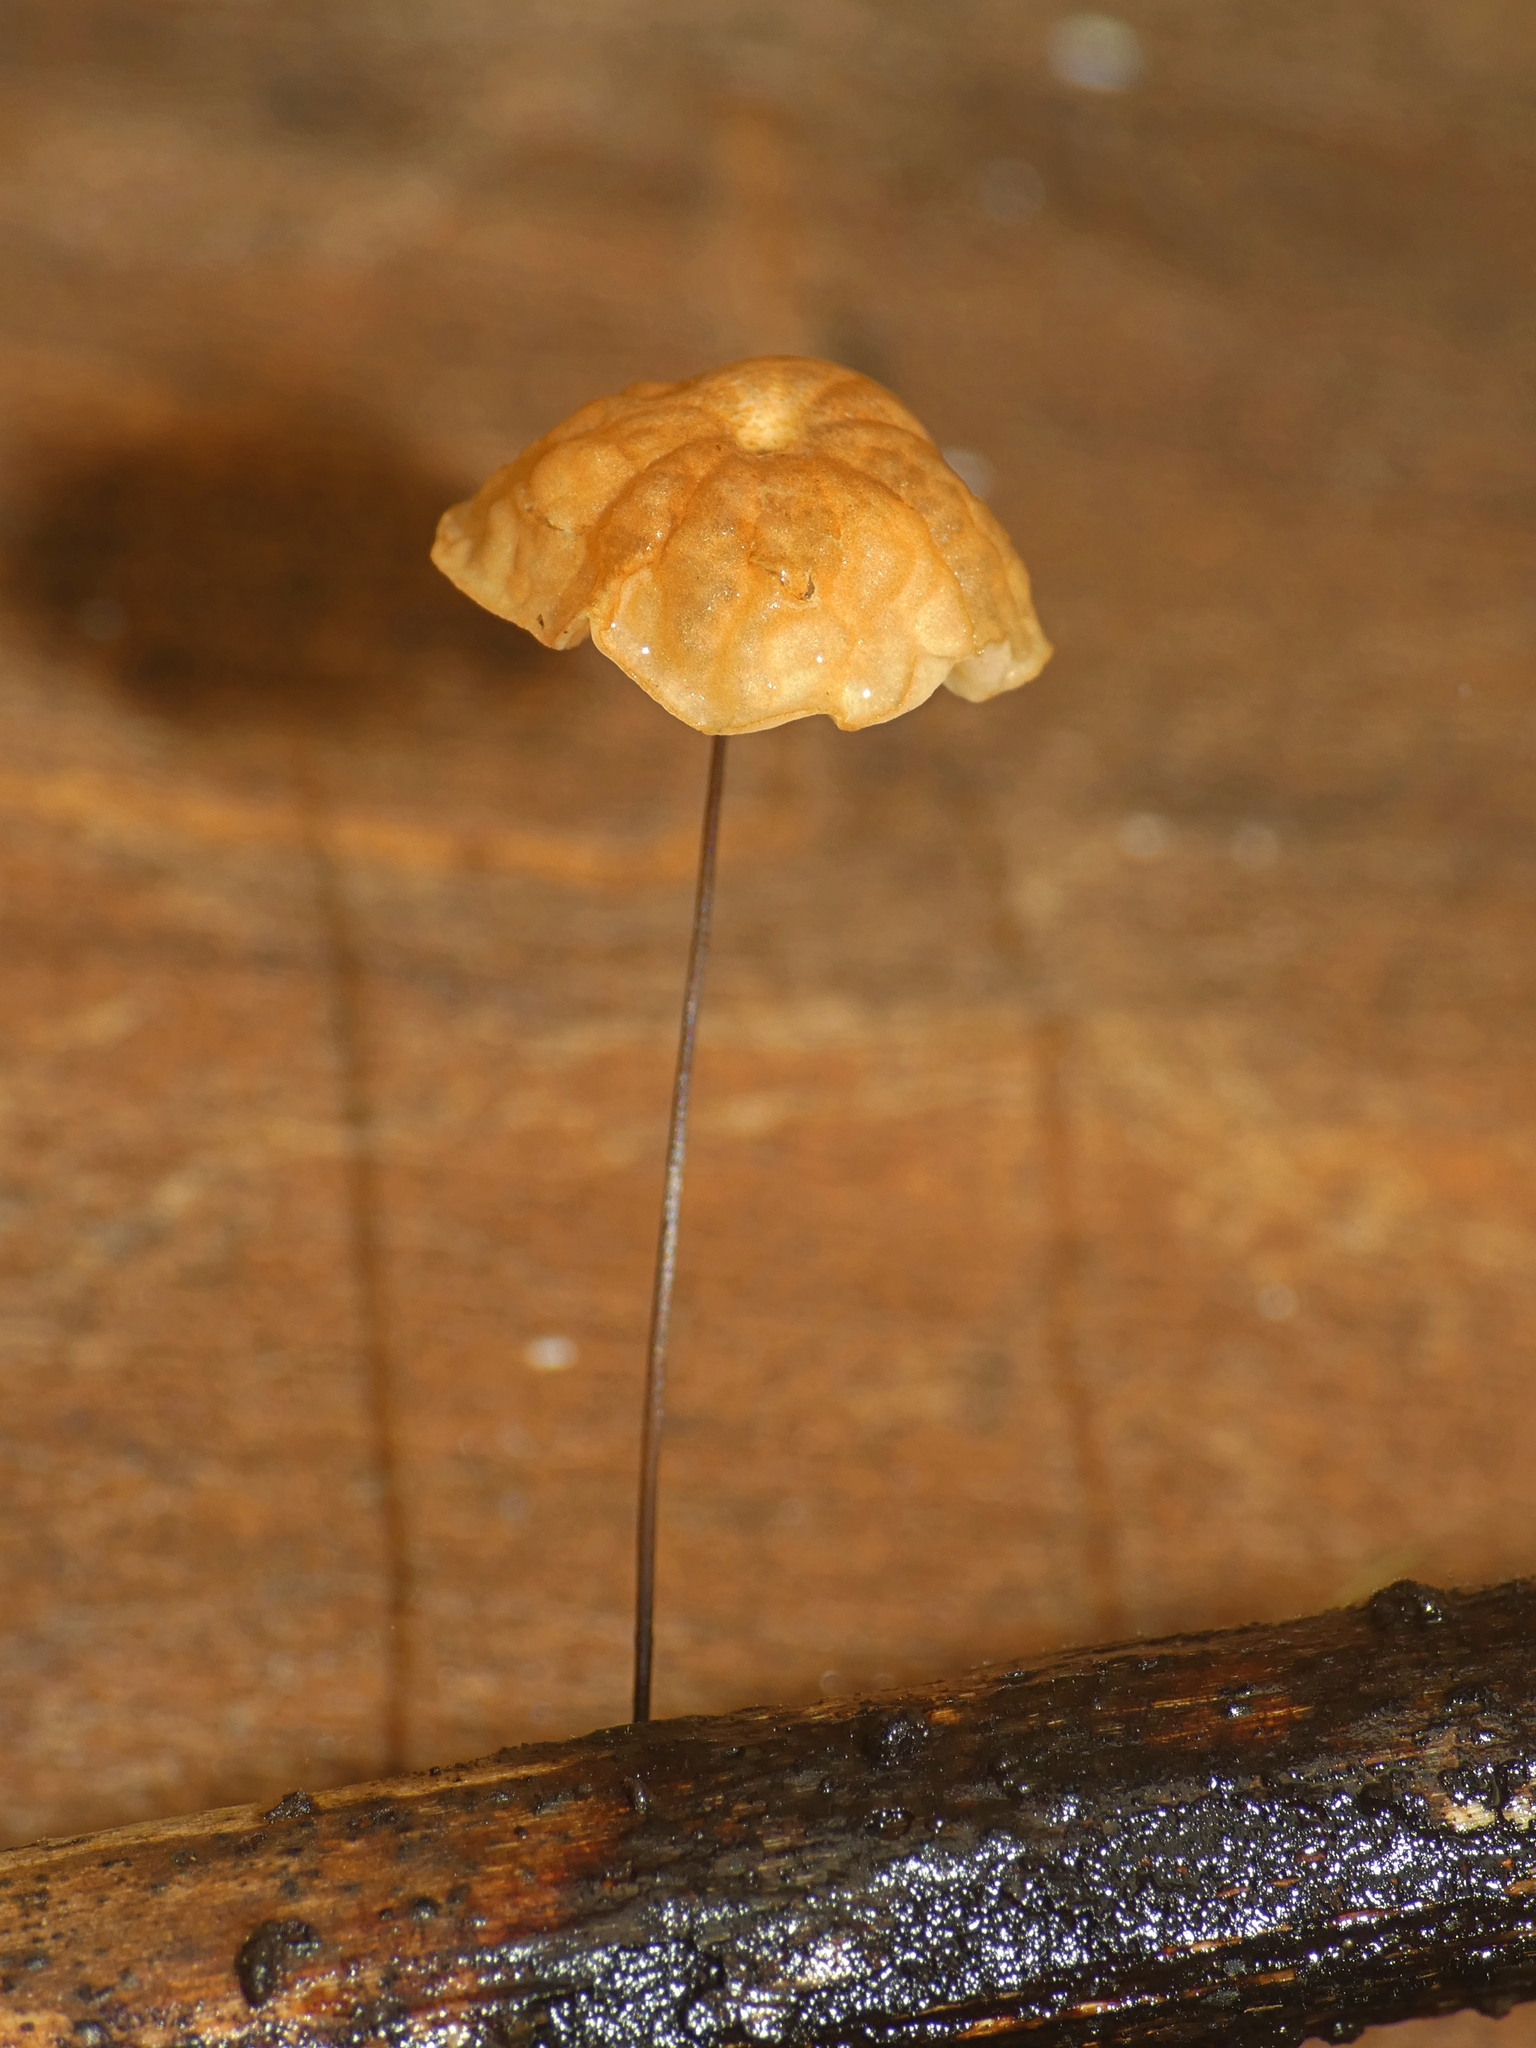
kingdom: Fungi
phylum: Basidiomycota
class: Agaricomycetes
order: Agaricales
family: Marasmiaceae
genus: Marasmius
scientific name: Marasmius crinis-equi
